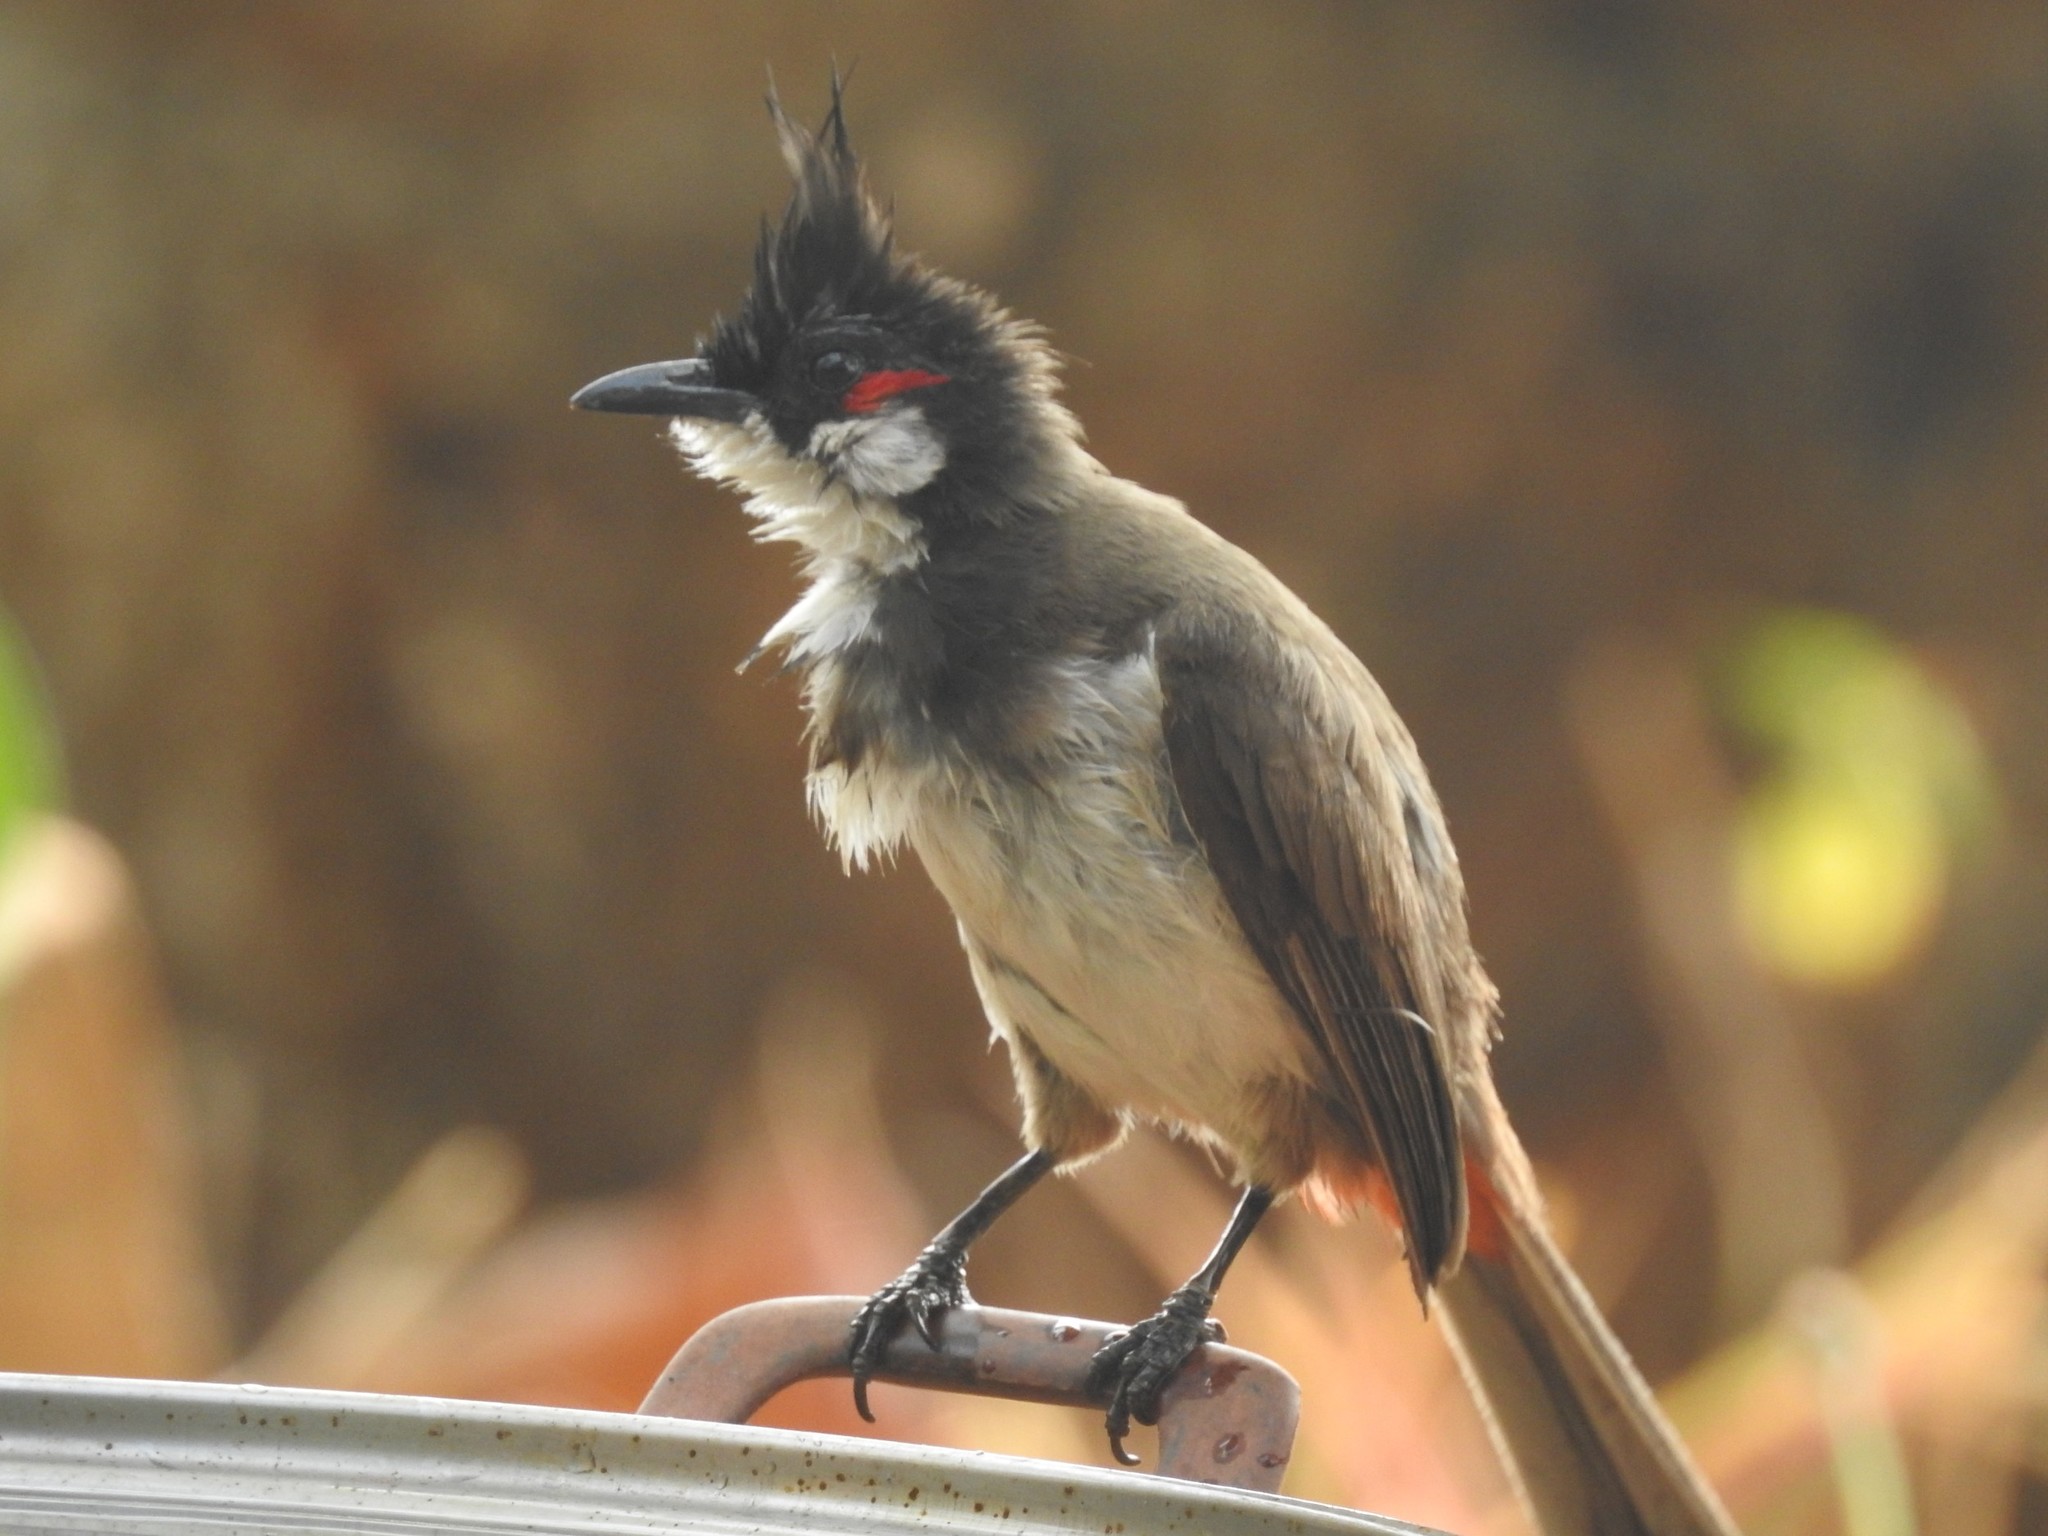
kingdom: Animalia
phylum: Chordata
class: Aves
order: Passeriformes
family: Pycnonotidae
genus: Pycnonotus
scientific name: Pycnonotus jocosus
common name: Red-whiskered bulbul
